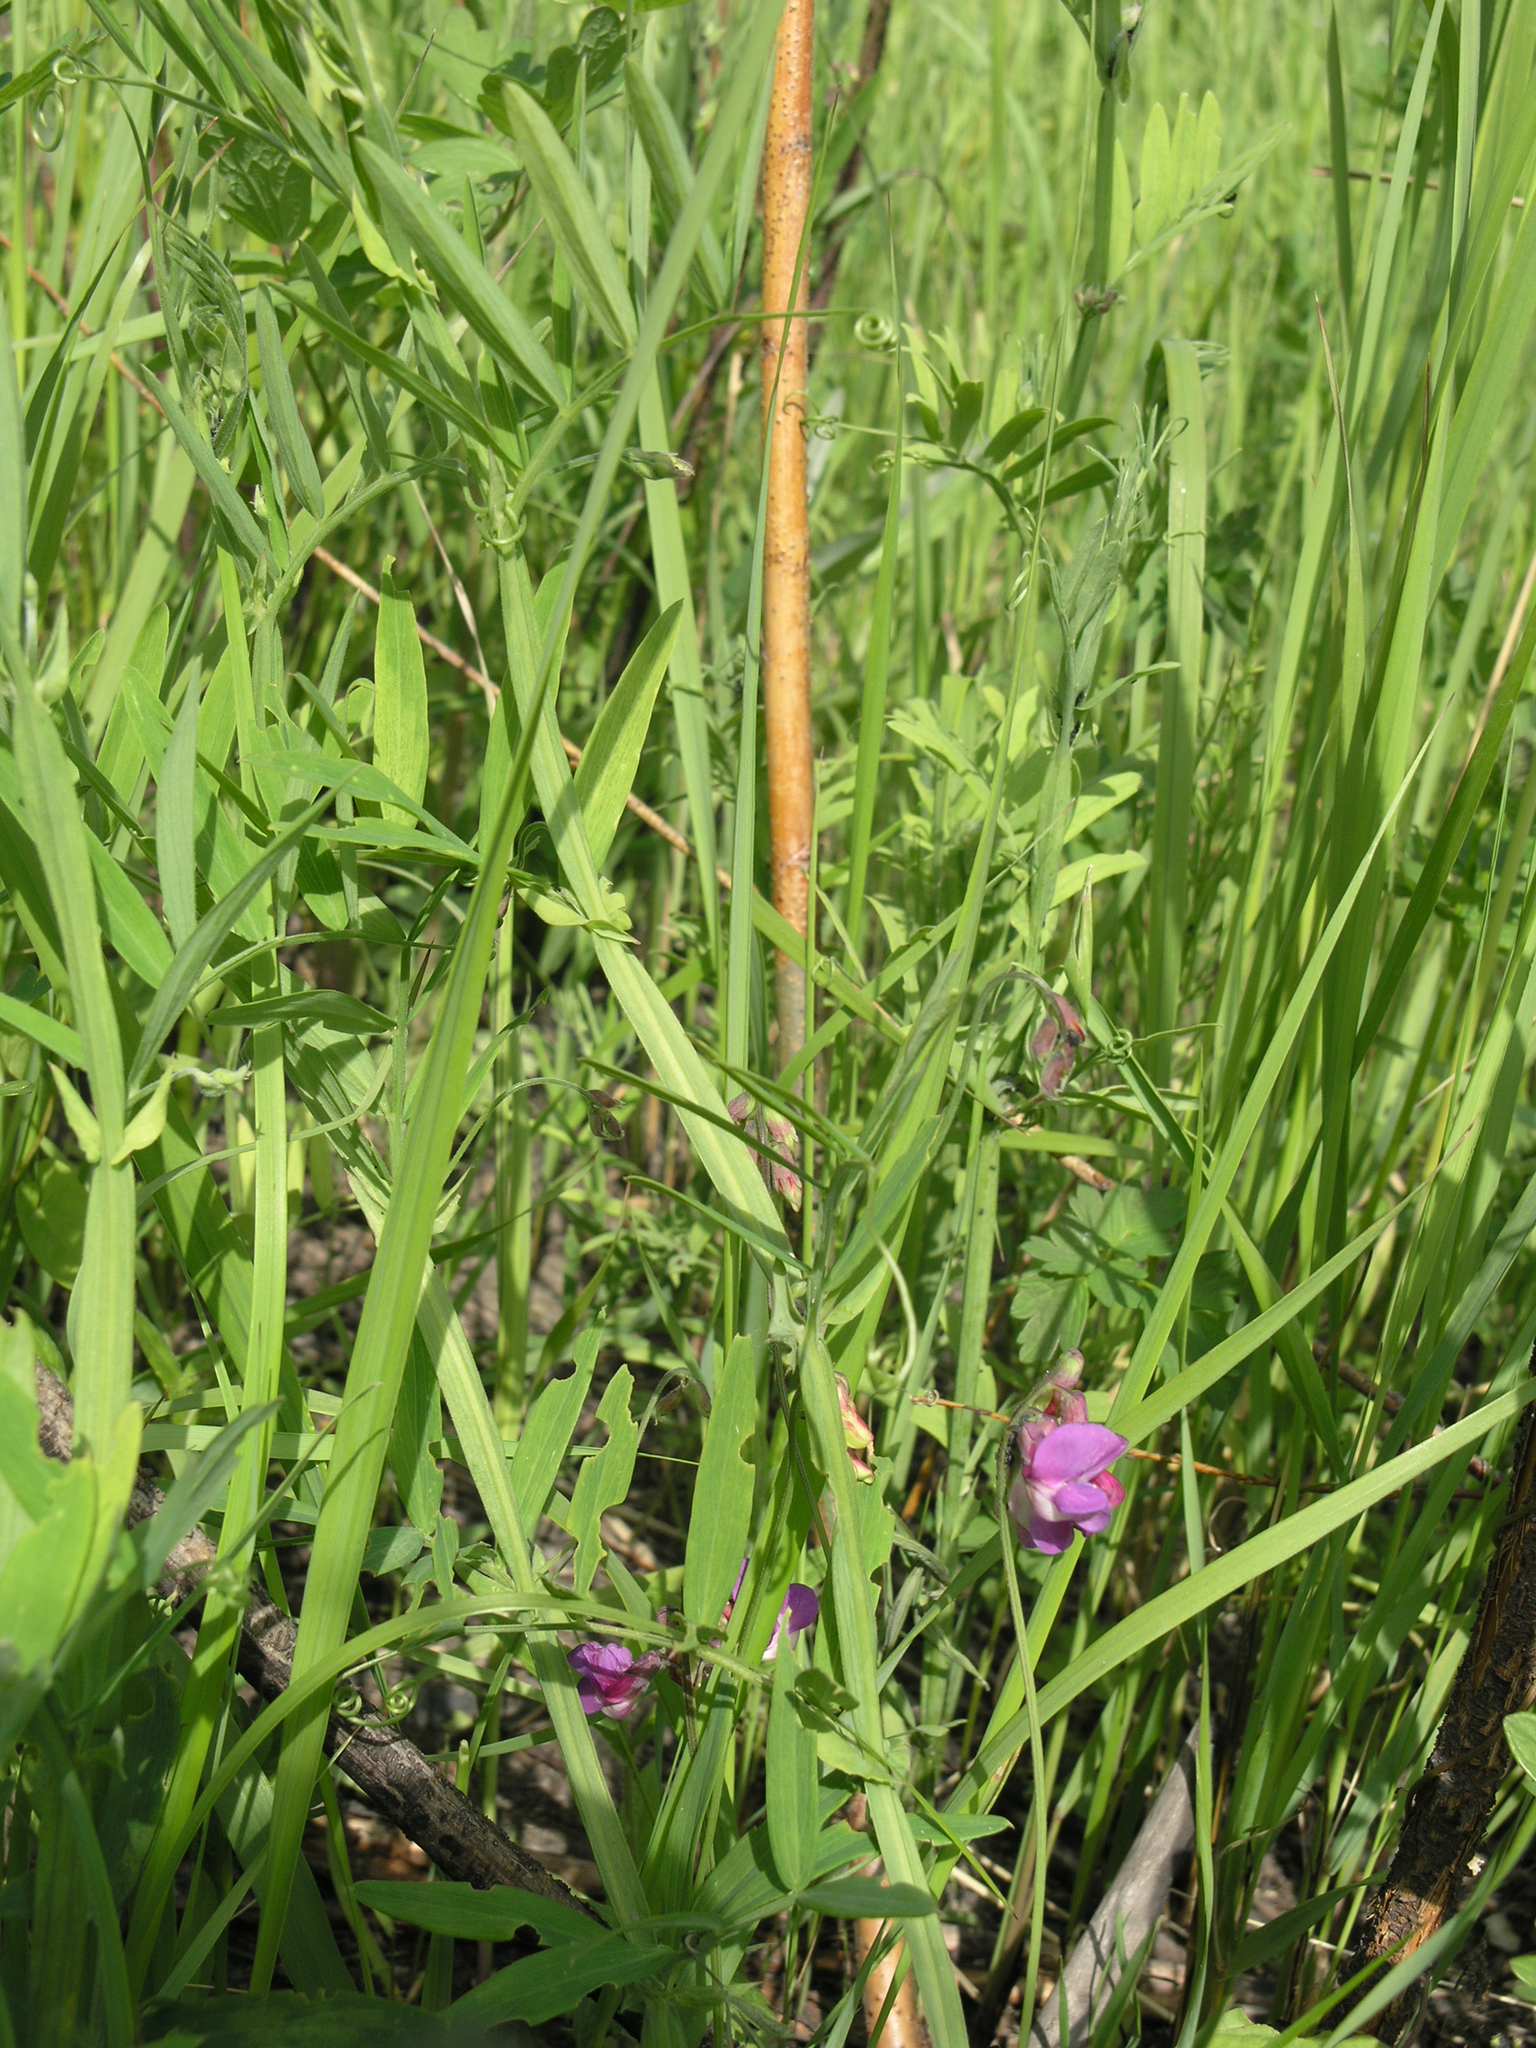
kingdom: Plantae
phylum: Tracheophyta
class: Magnoliopsida
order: Fabales
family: Fabaceae
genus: Lathyrus
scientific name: Lathyrus palustris
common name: Marsh pea
